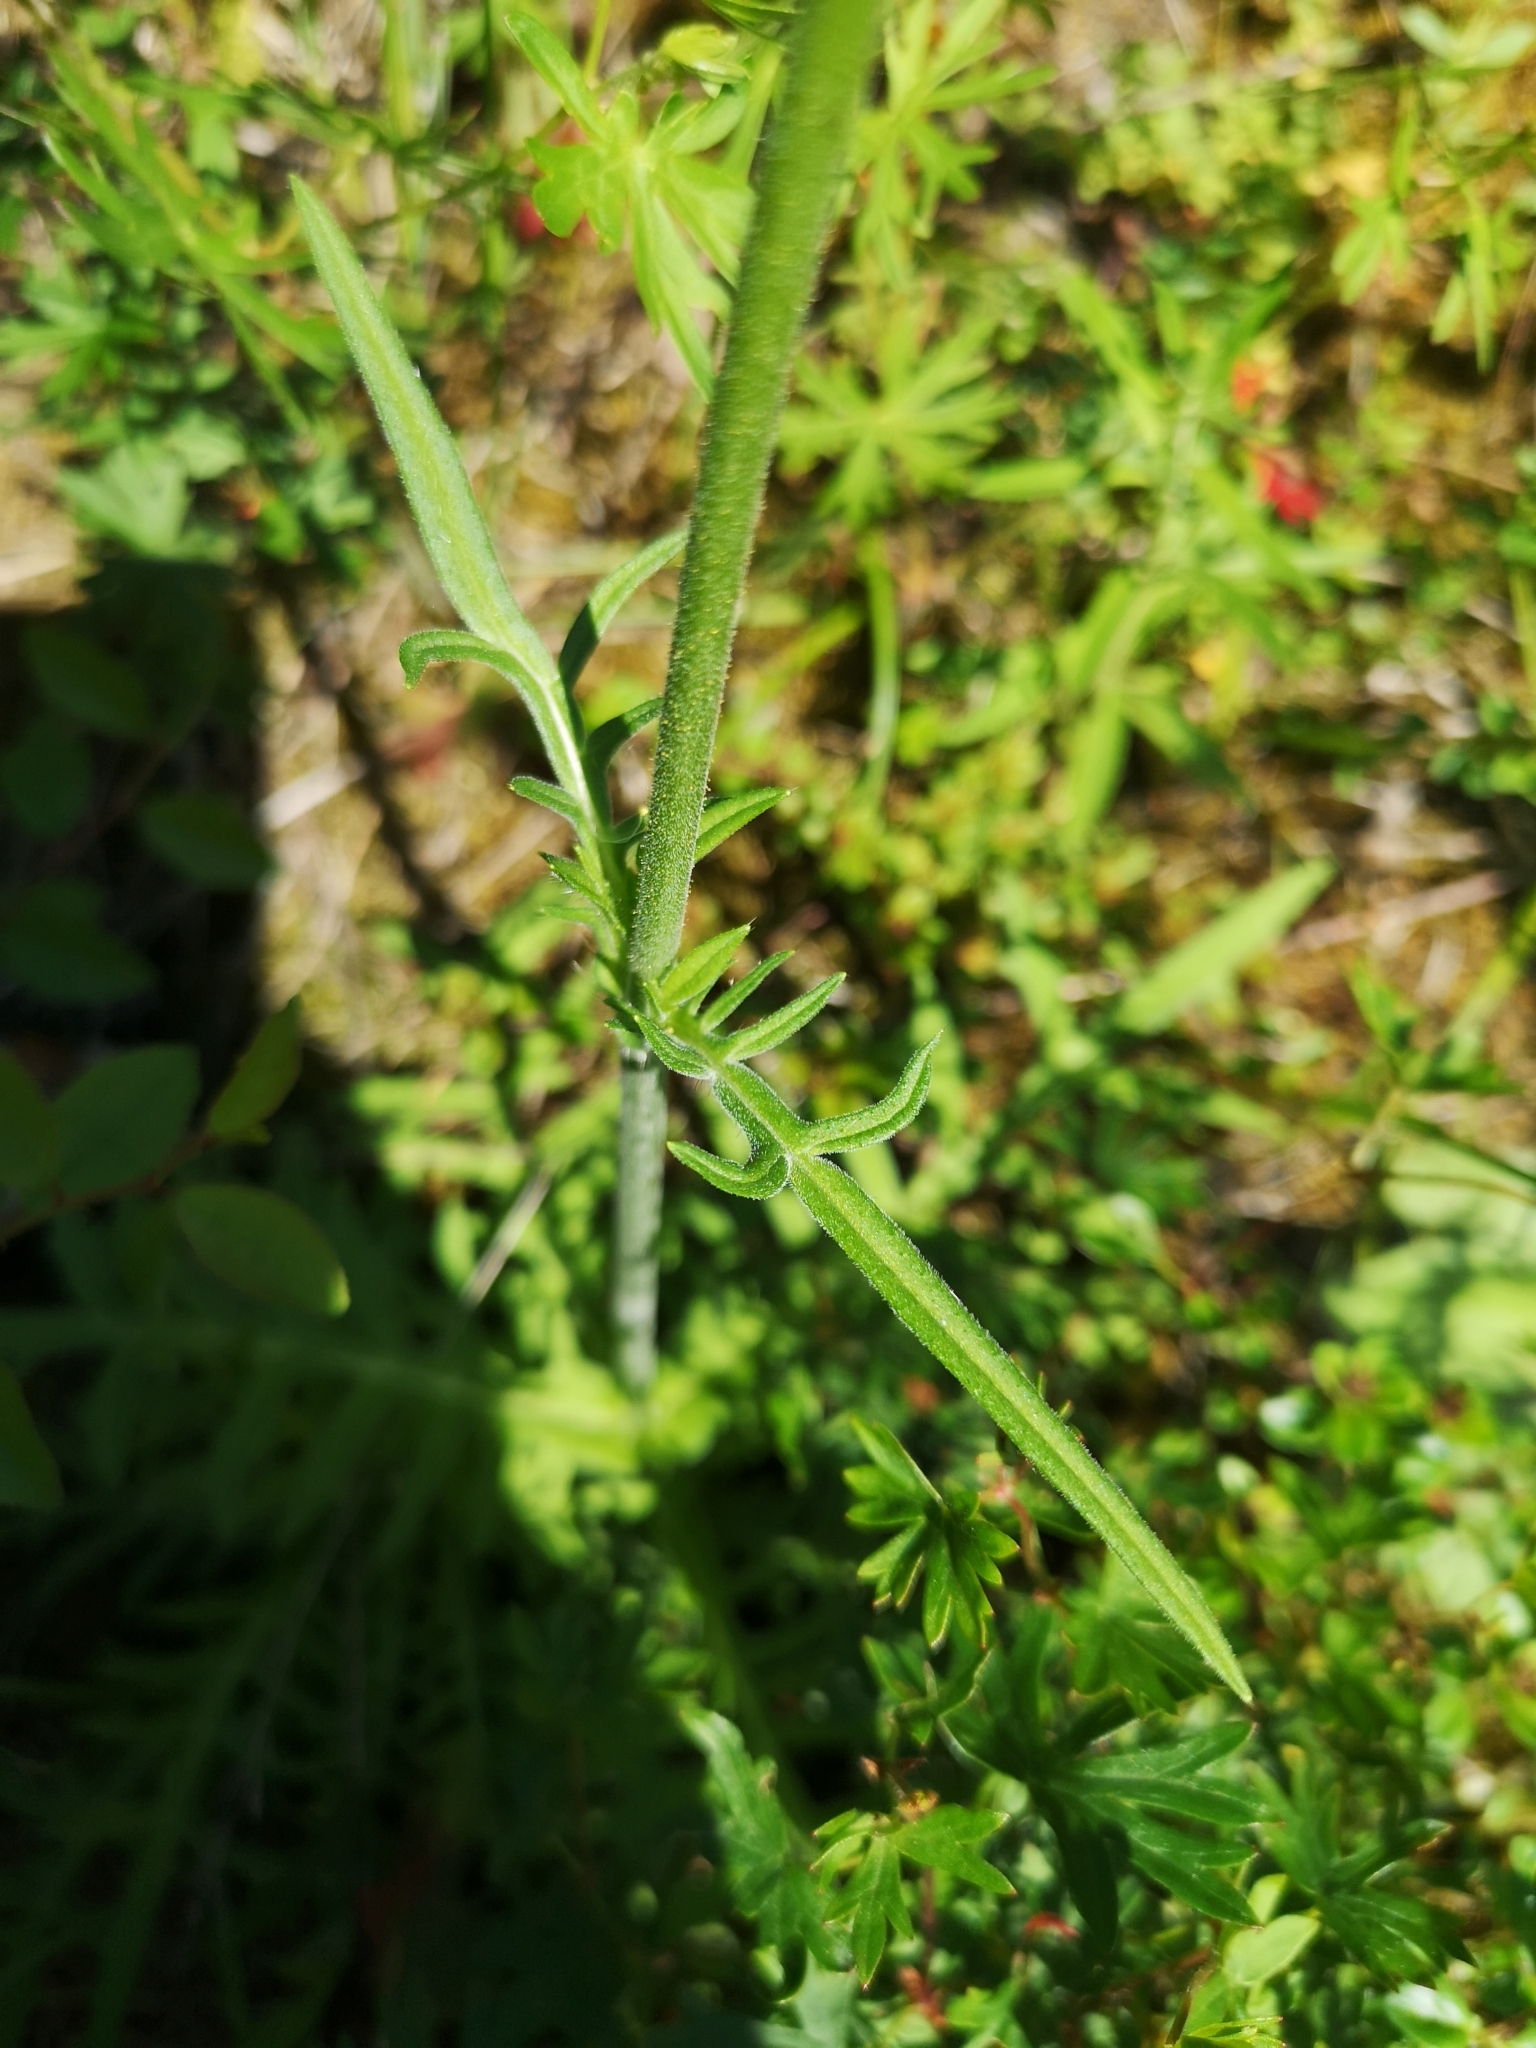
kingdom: Plantae
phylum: Tracheophyta
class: Magnoliopsida
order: Dipsacales
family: Caprifoliaceae
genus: Knautia
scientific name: Knautia arvensis
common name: Field scabiosa
